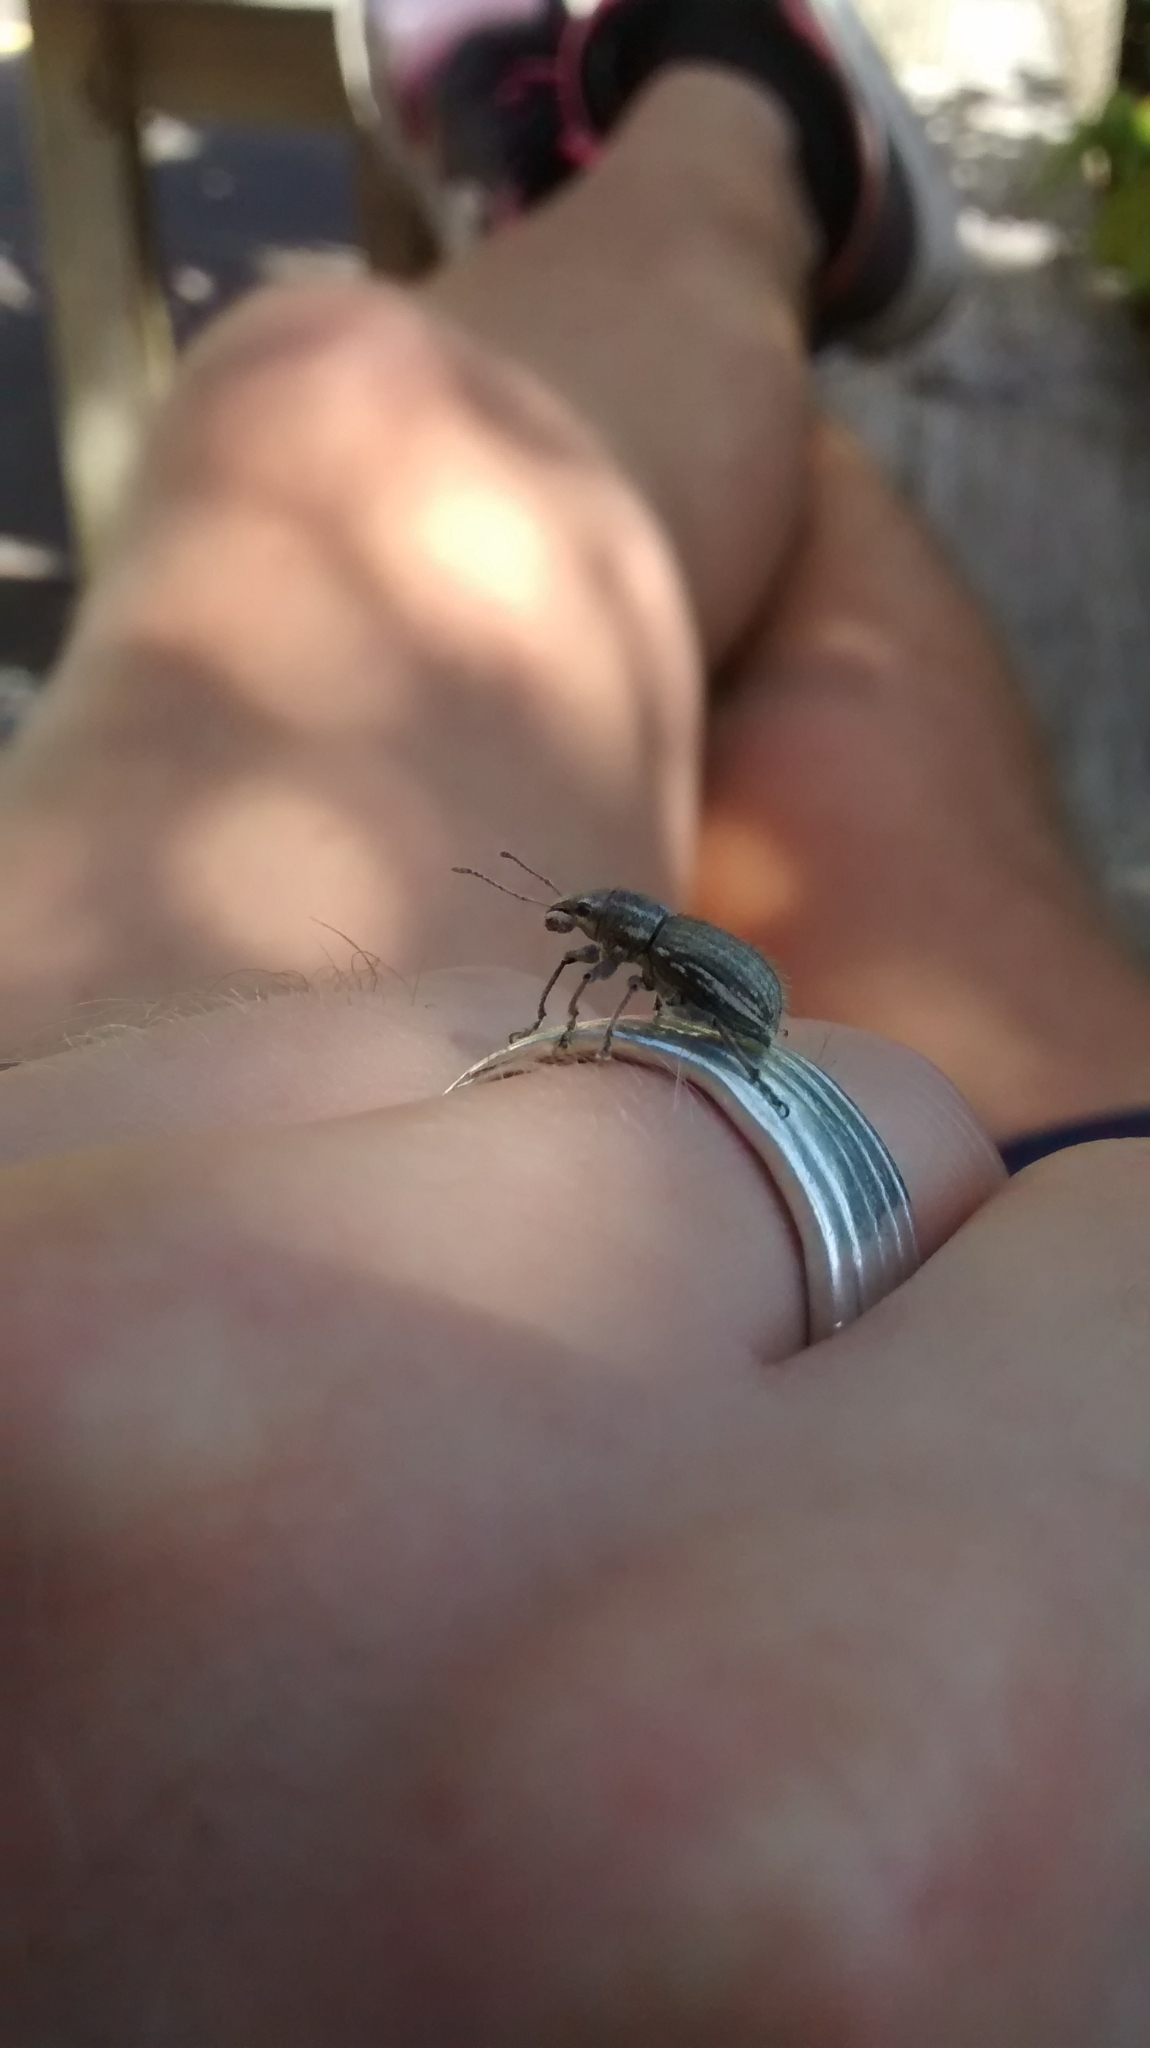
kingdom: Animalia
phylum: Arthropoda
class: Insecta
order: Coleoptera
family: Curculionidae
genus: Naupactus
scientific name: Naupactus leucoloma
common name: Whitefringed beetle
